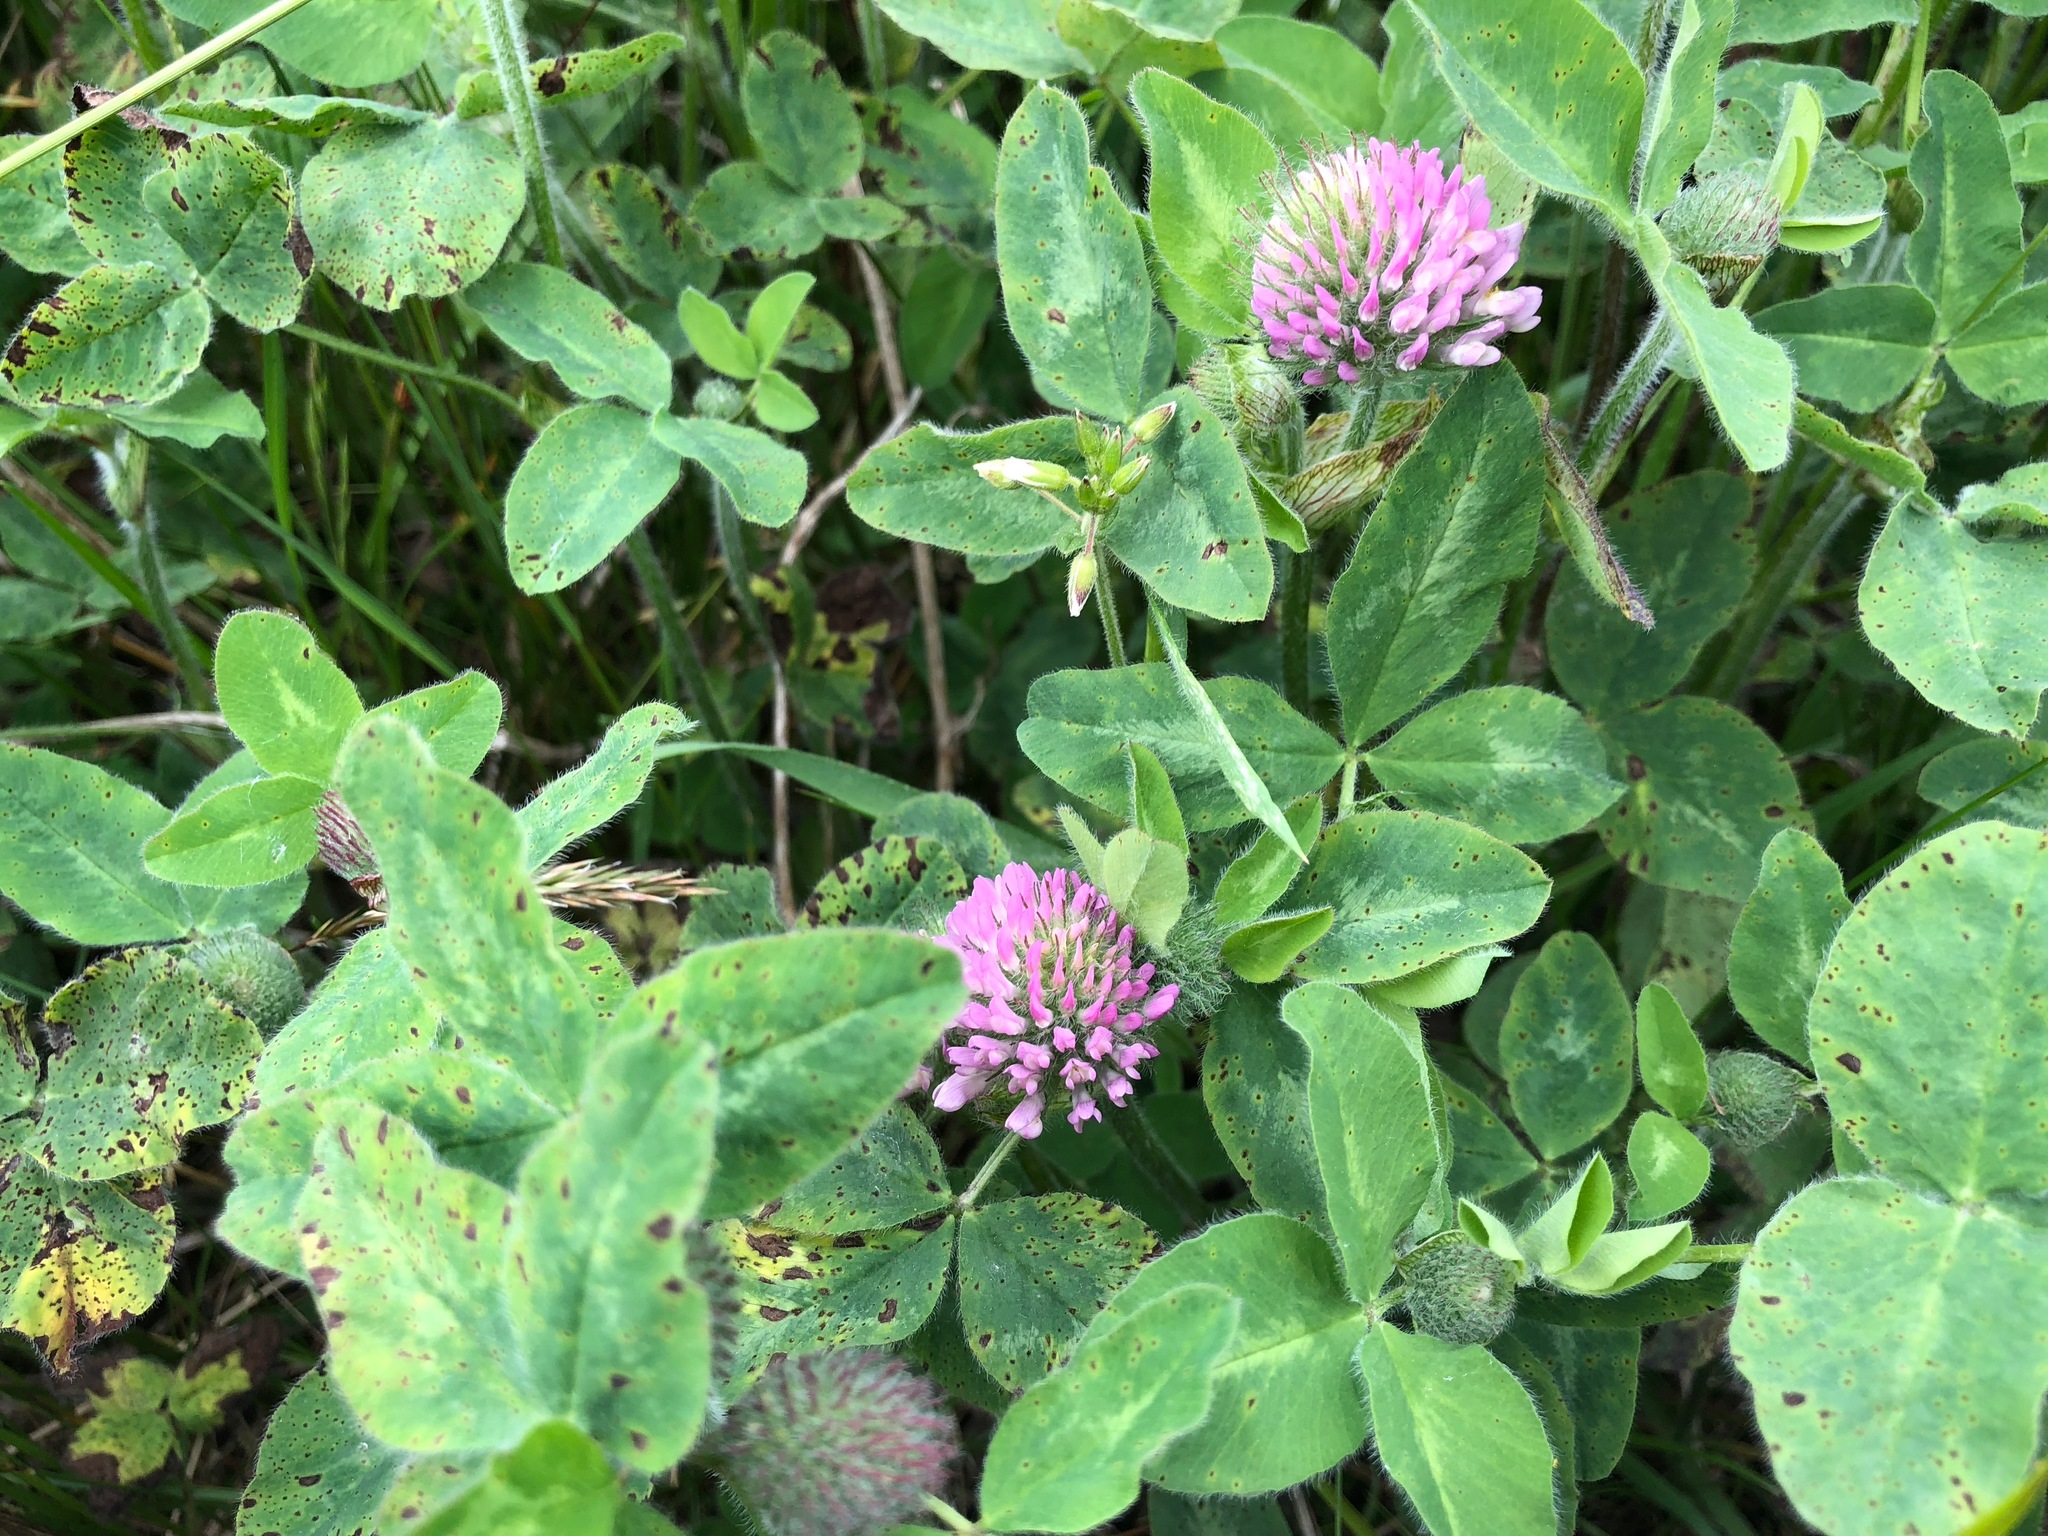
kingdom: Plantae
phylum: Tracheophyta
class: Magnoliopsida
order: Fabales
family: Fabaceae
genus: Trifolium
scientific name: Trifolium pratense
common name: Red clover
